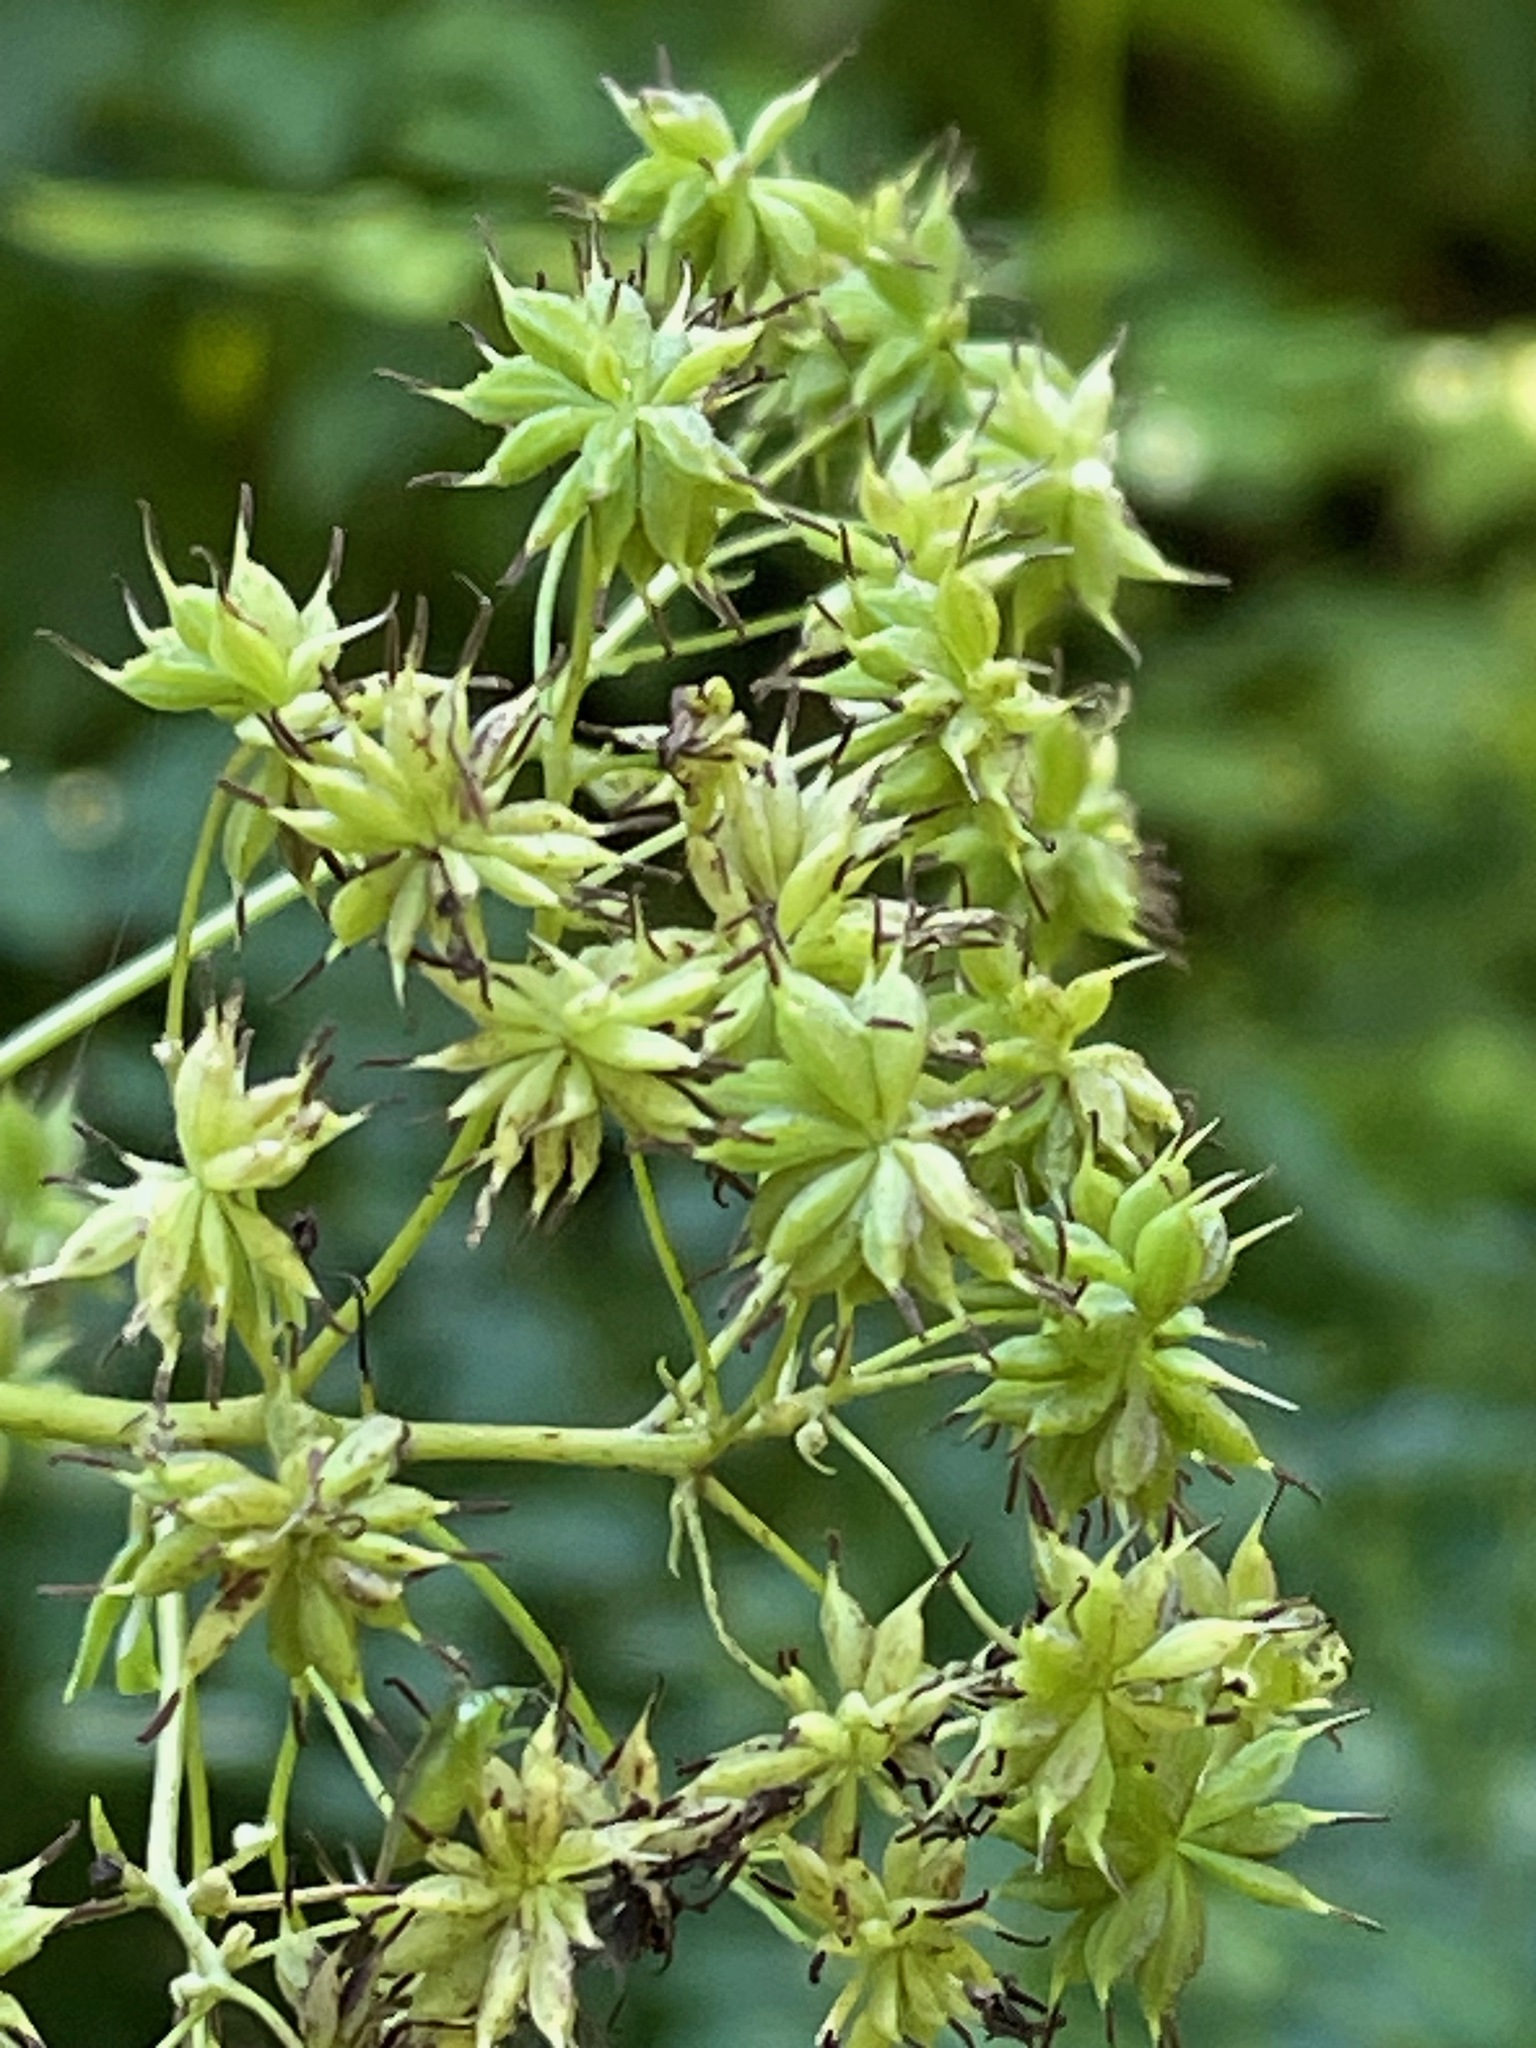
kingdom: Plantae
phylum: Tracheophyta
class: Magnoliopsida
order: Ranunculales
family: Ranunculaceae
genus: Thalictrum
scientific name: Thalictrum pubescens
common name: King-of-the-meadow
